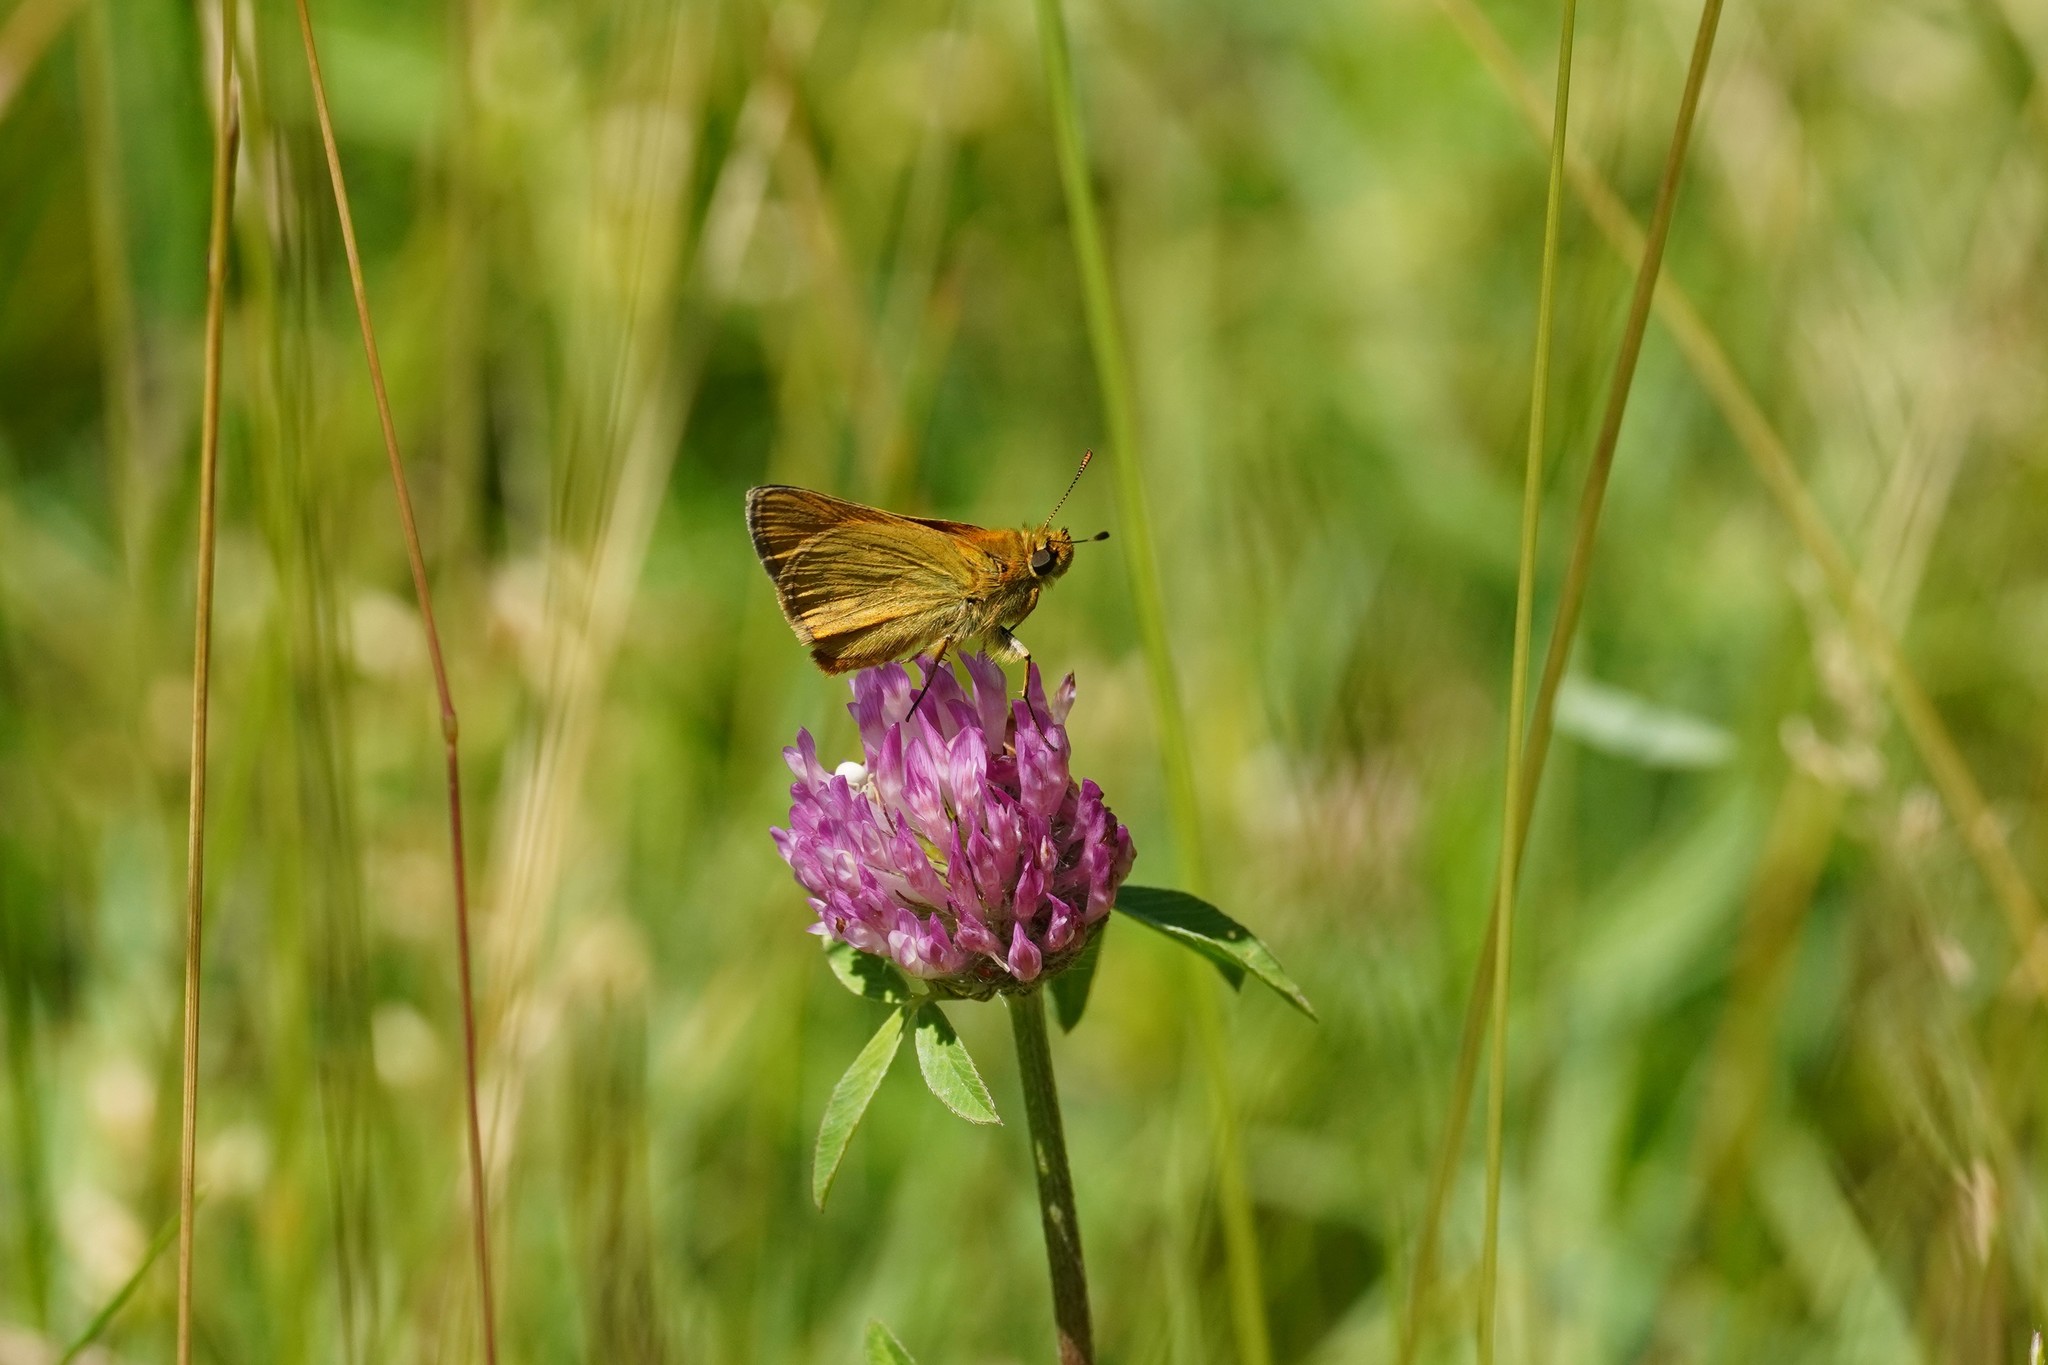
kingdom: Animalia
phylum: Arthropoda
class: Insecta
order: Lepidoptera
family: Hesperiidae
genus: Ochlodes
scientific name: Ochlodes venata
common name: Large skipper
